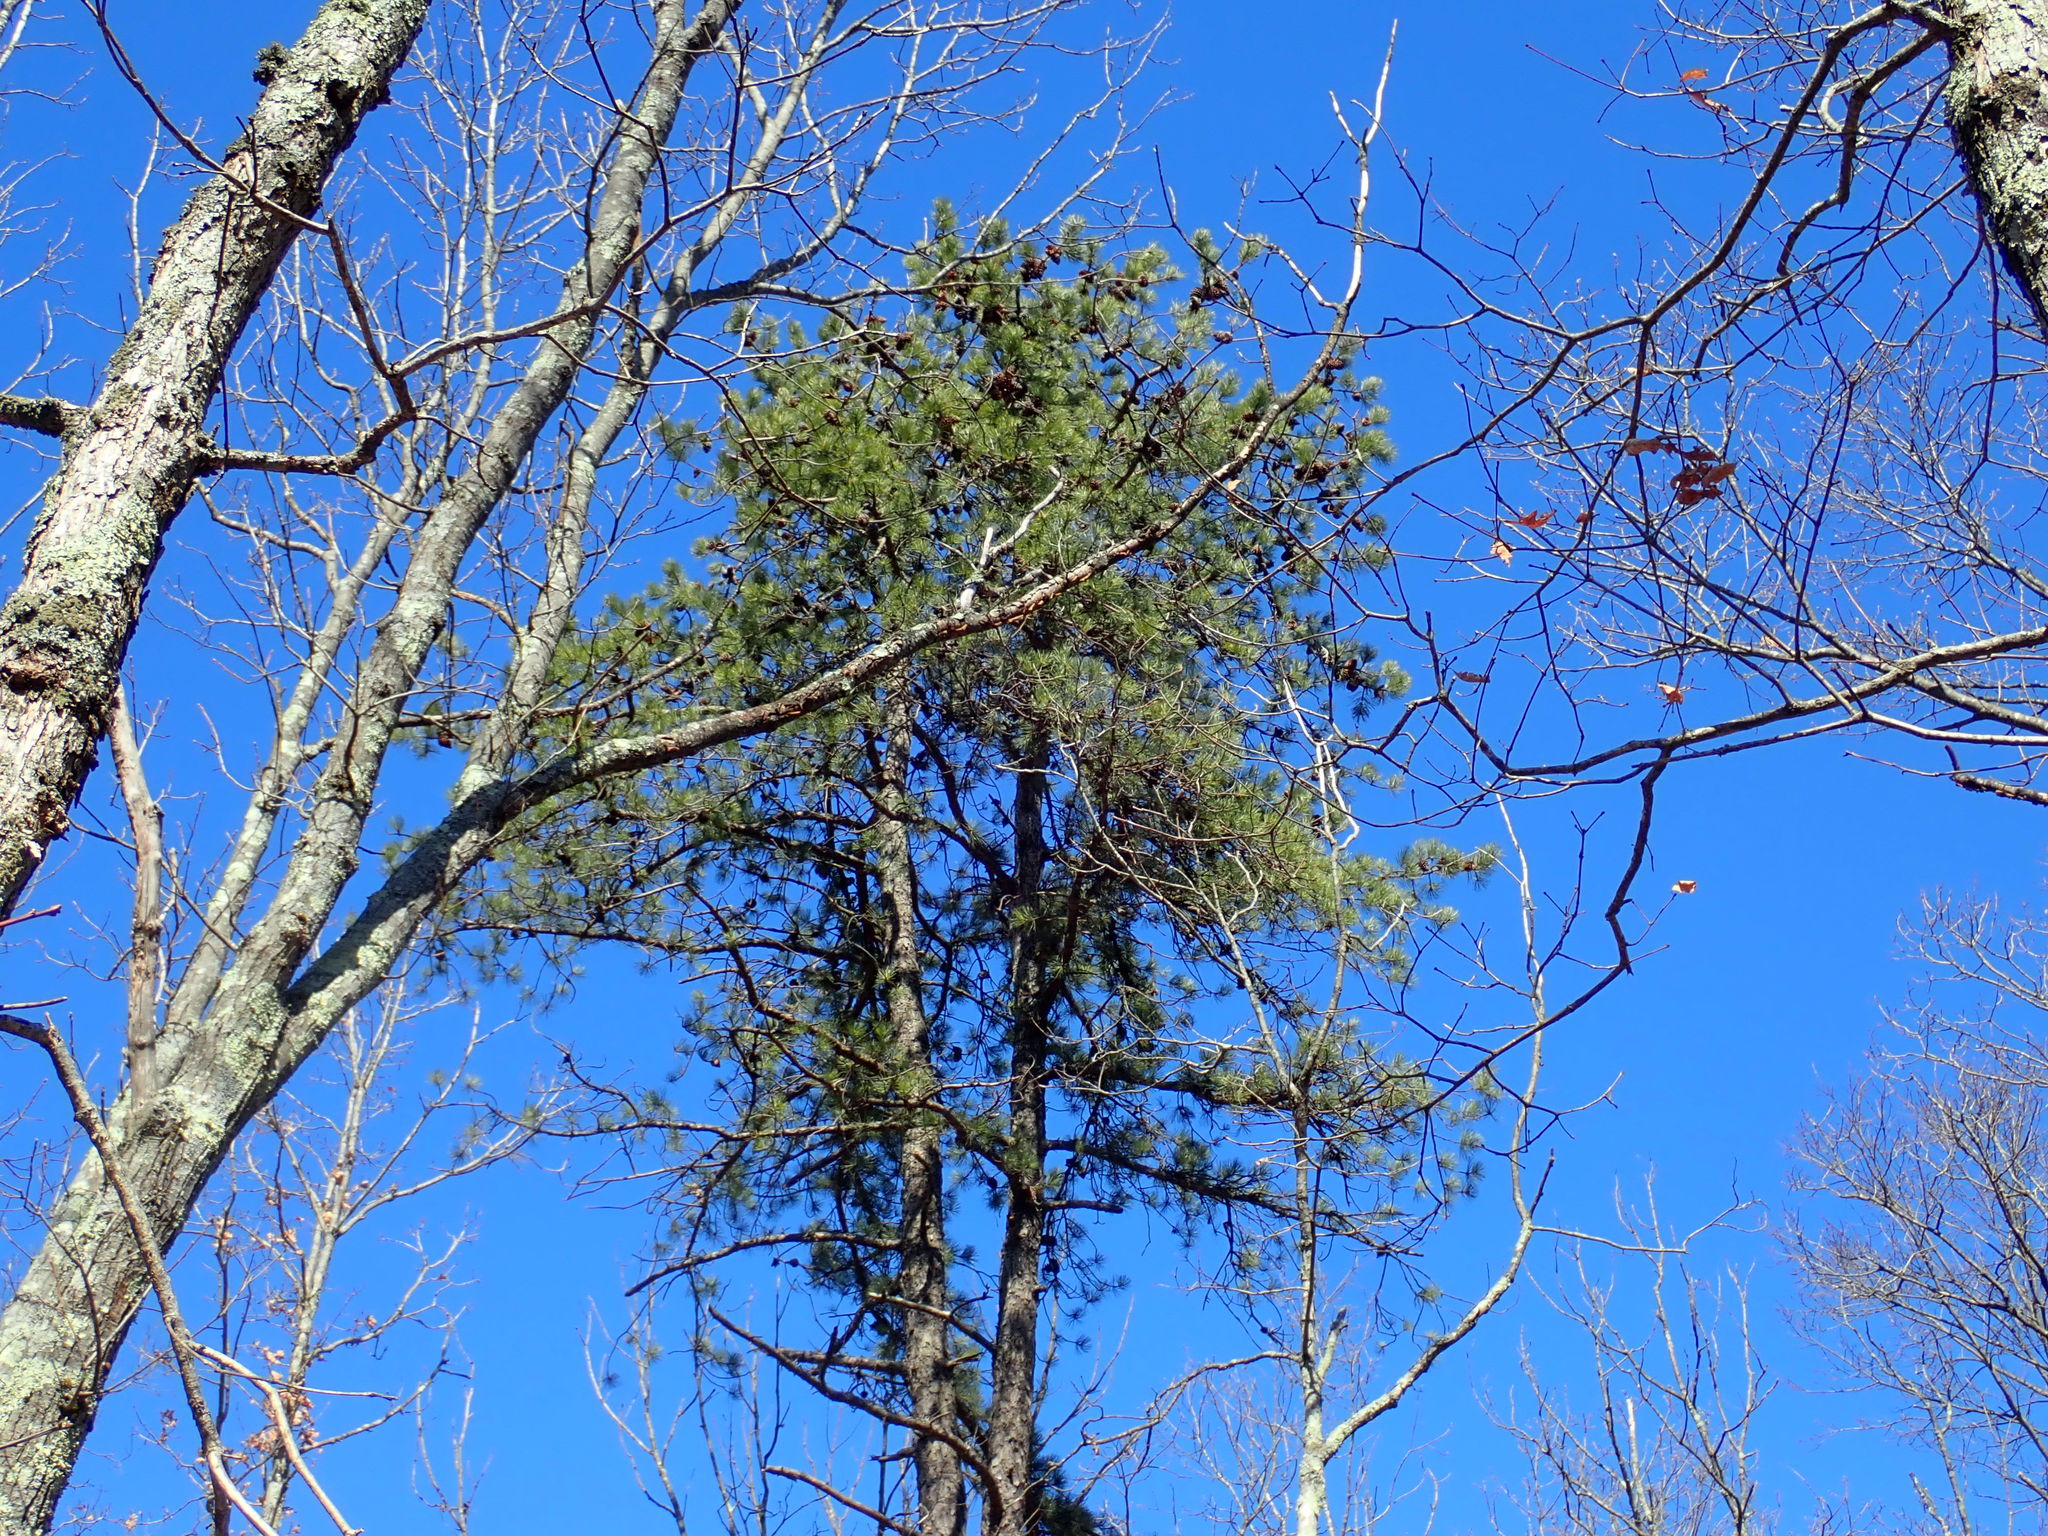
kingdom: Plantae
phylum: Tracheophyta
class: Pinopsida
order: Pinales
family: Pinaceae
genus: Pinus
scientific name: Pinus rigida
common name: Pitch pine
